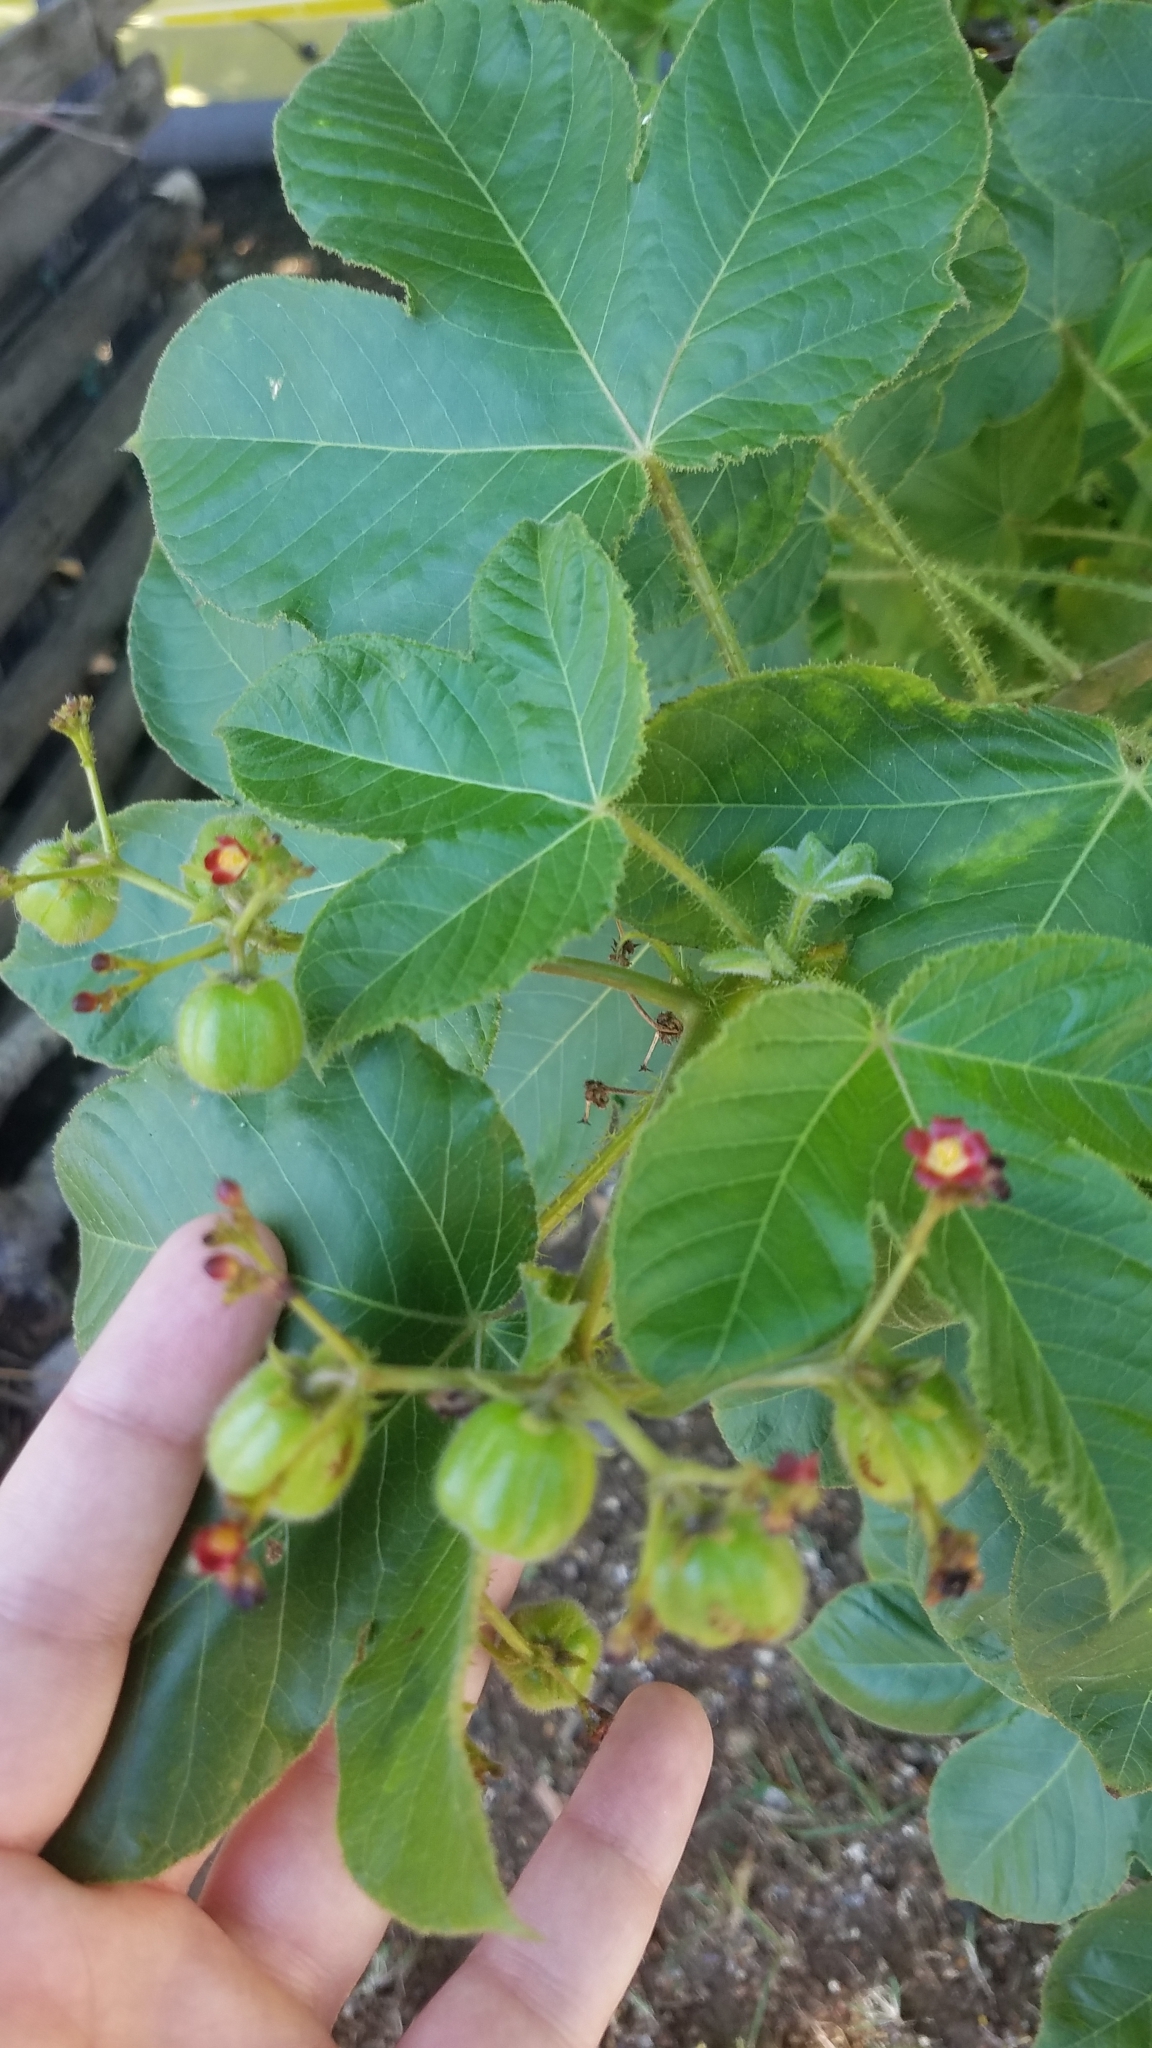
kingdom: Plantae
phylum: Tracheophyta
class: Magnoliopsida
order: Malpighiales
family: Euphorbiaceae
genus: Jatropha
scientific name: Jatropha gossypiifolia
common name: Bellyache bush
